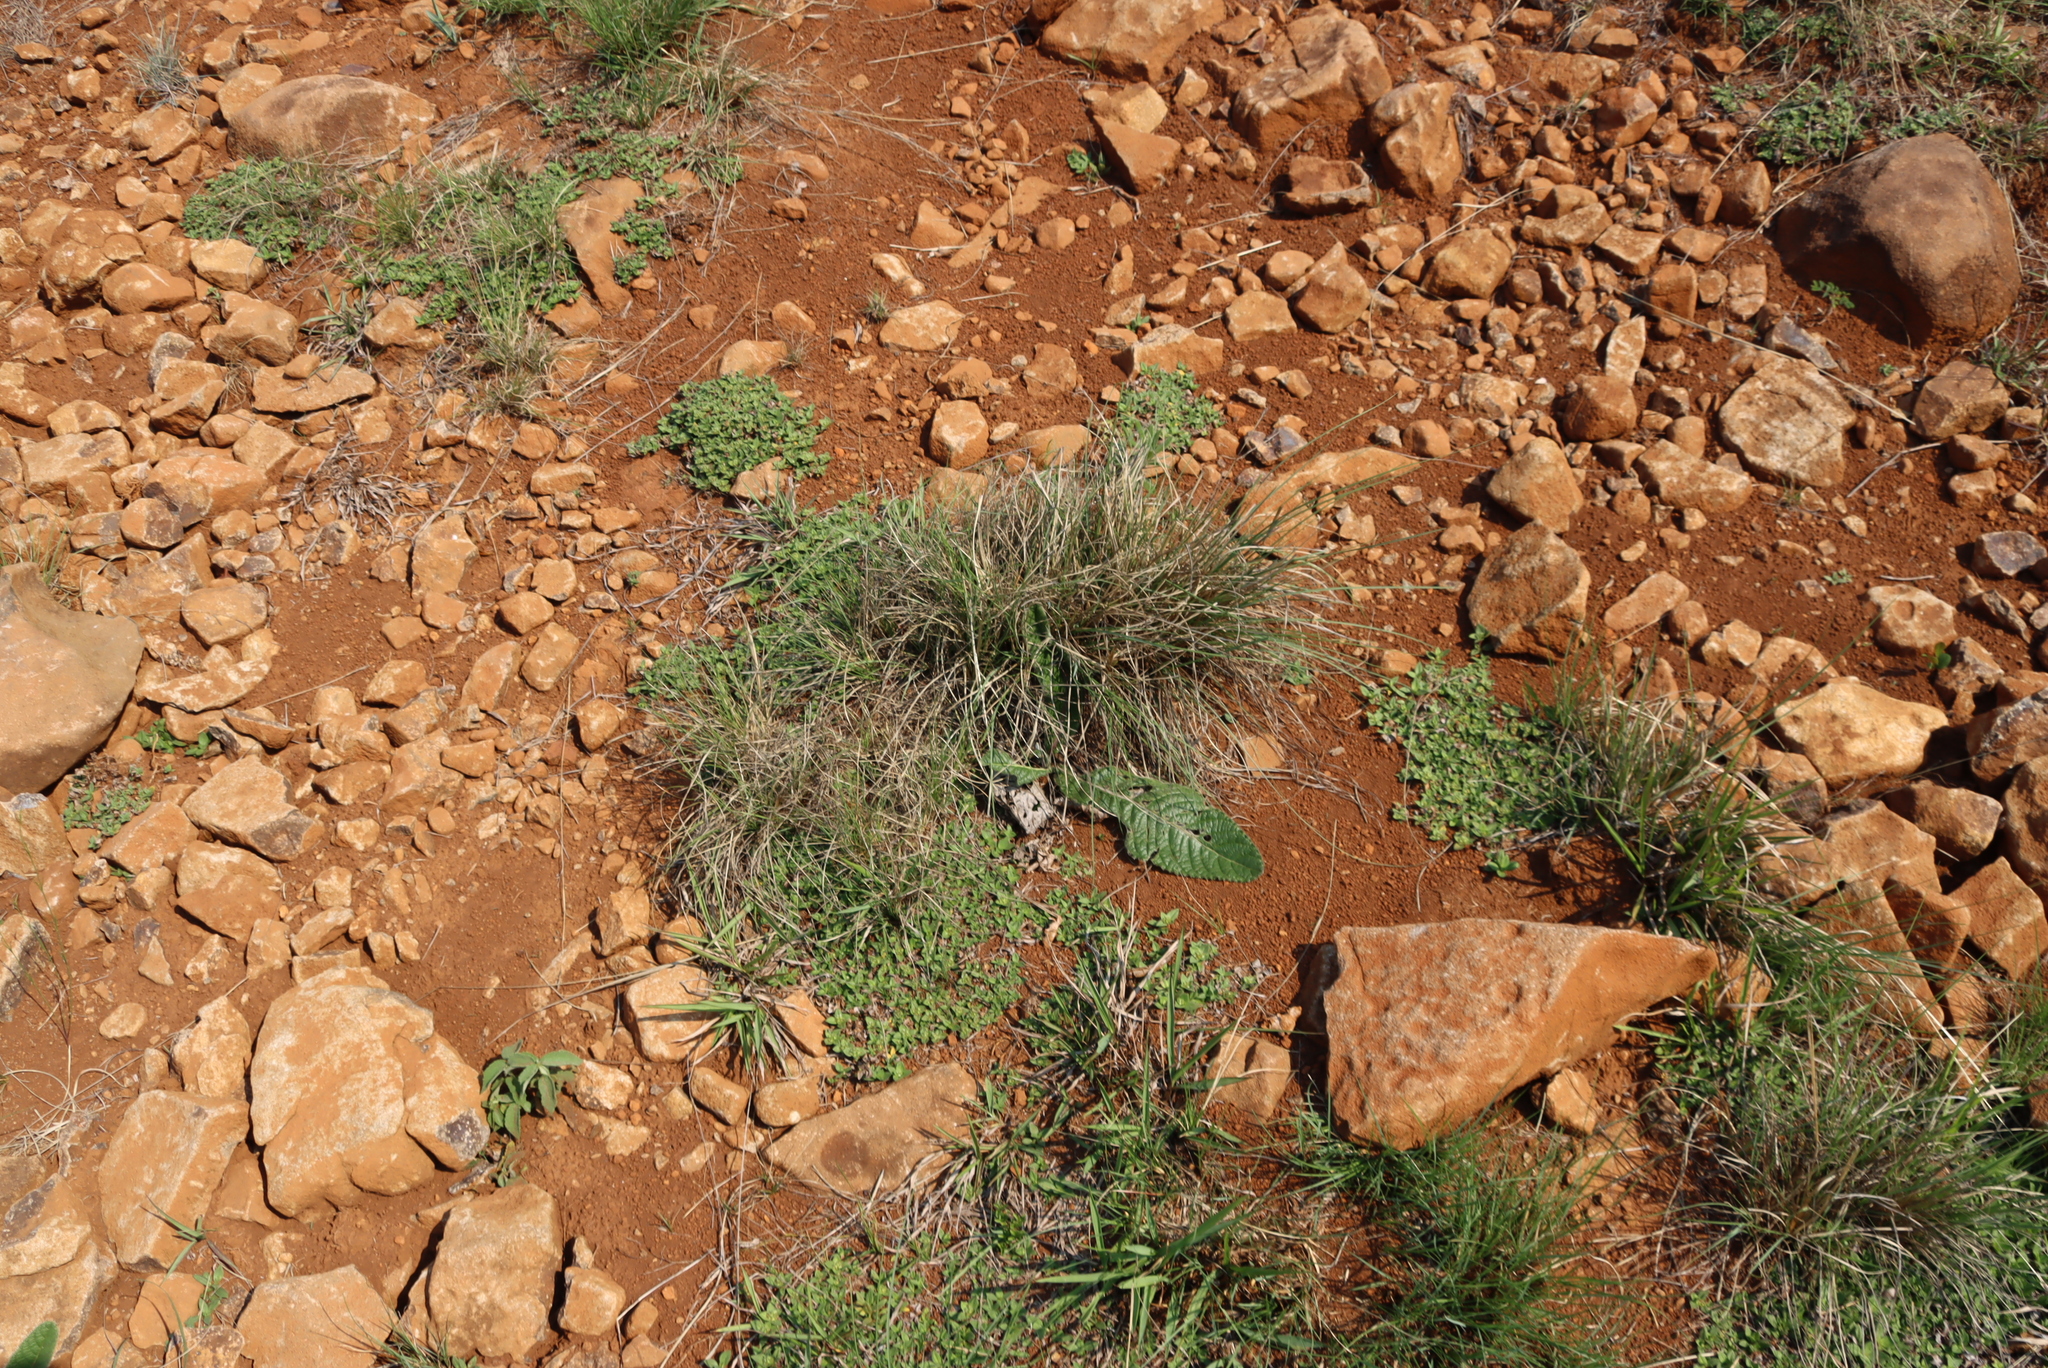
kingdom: Plantae
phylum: Tracheophyta
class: Magnoliopsida
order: Gentianales
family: Rubiaceae
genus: Richardia
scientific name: Richardia brasiliensis
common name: Tropical mexican clover
